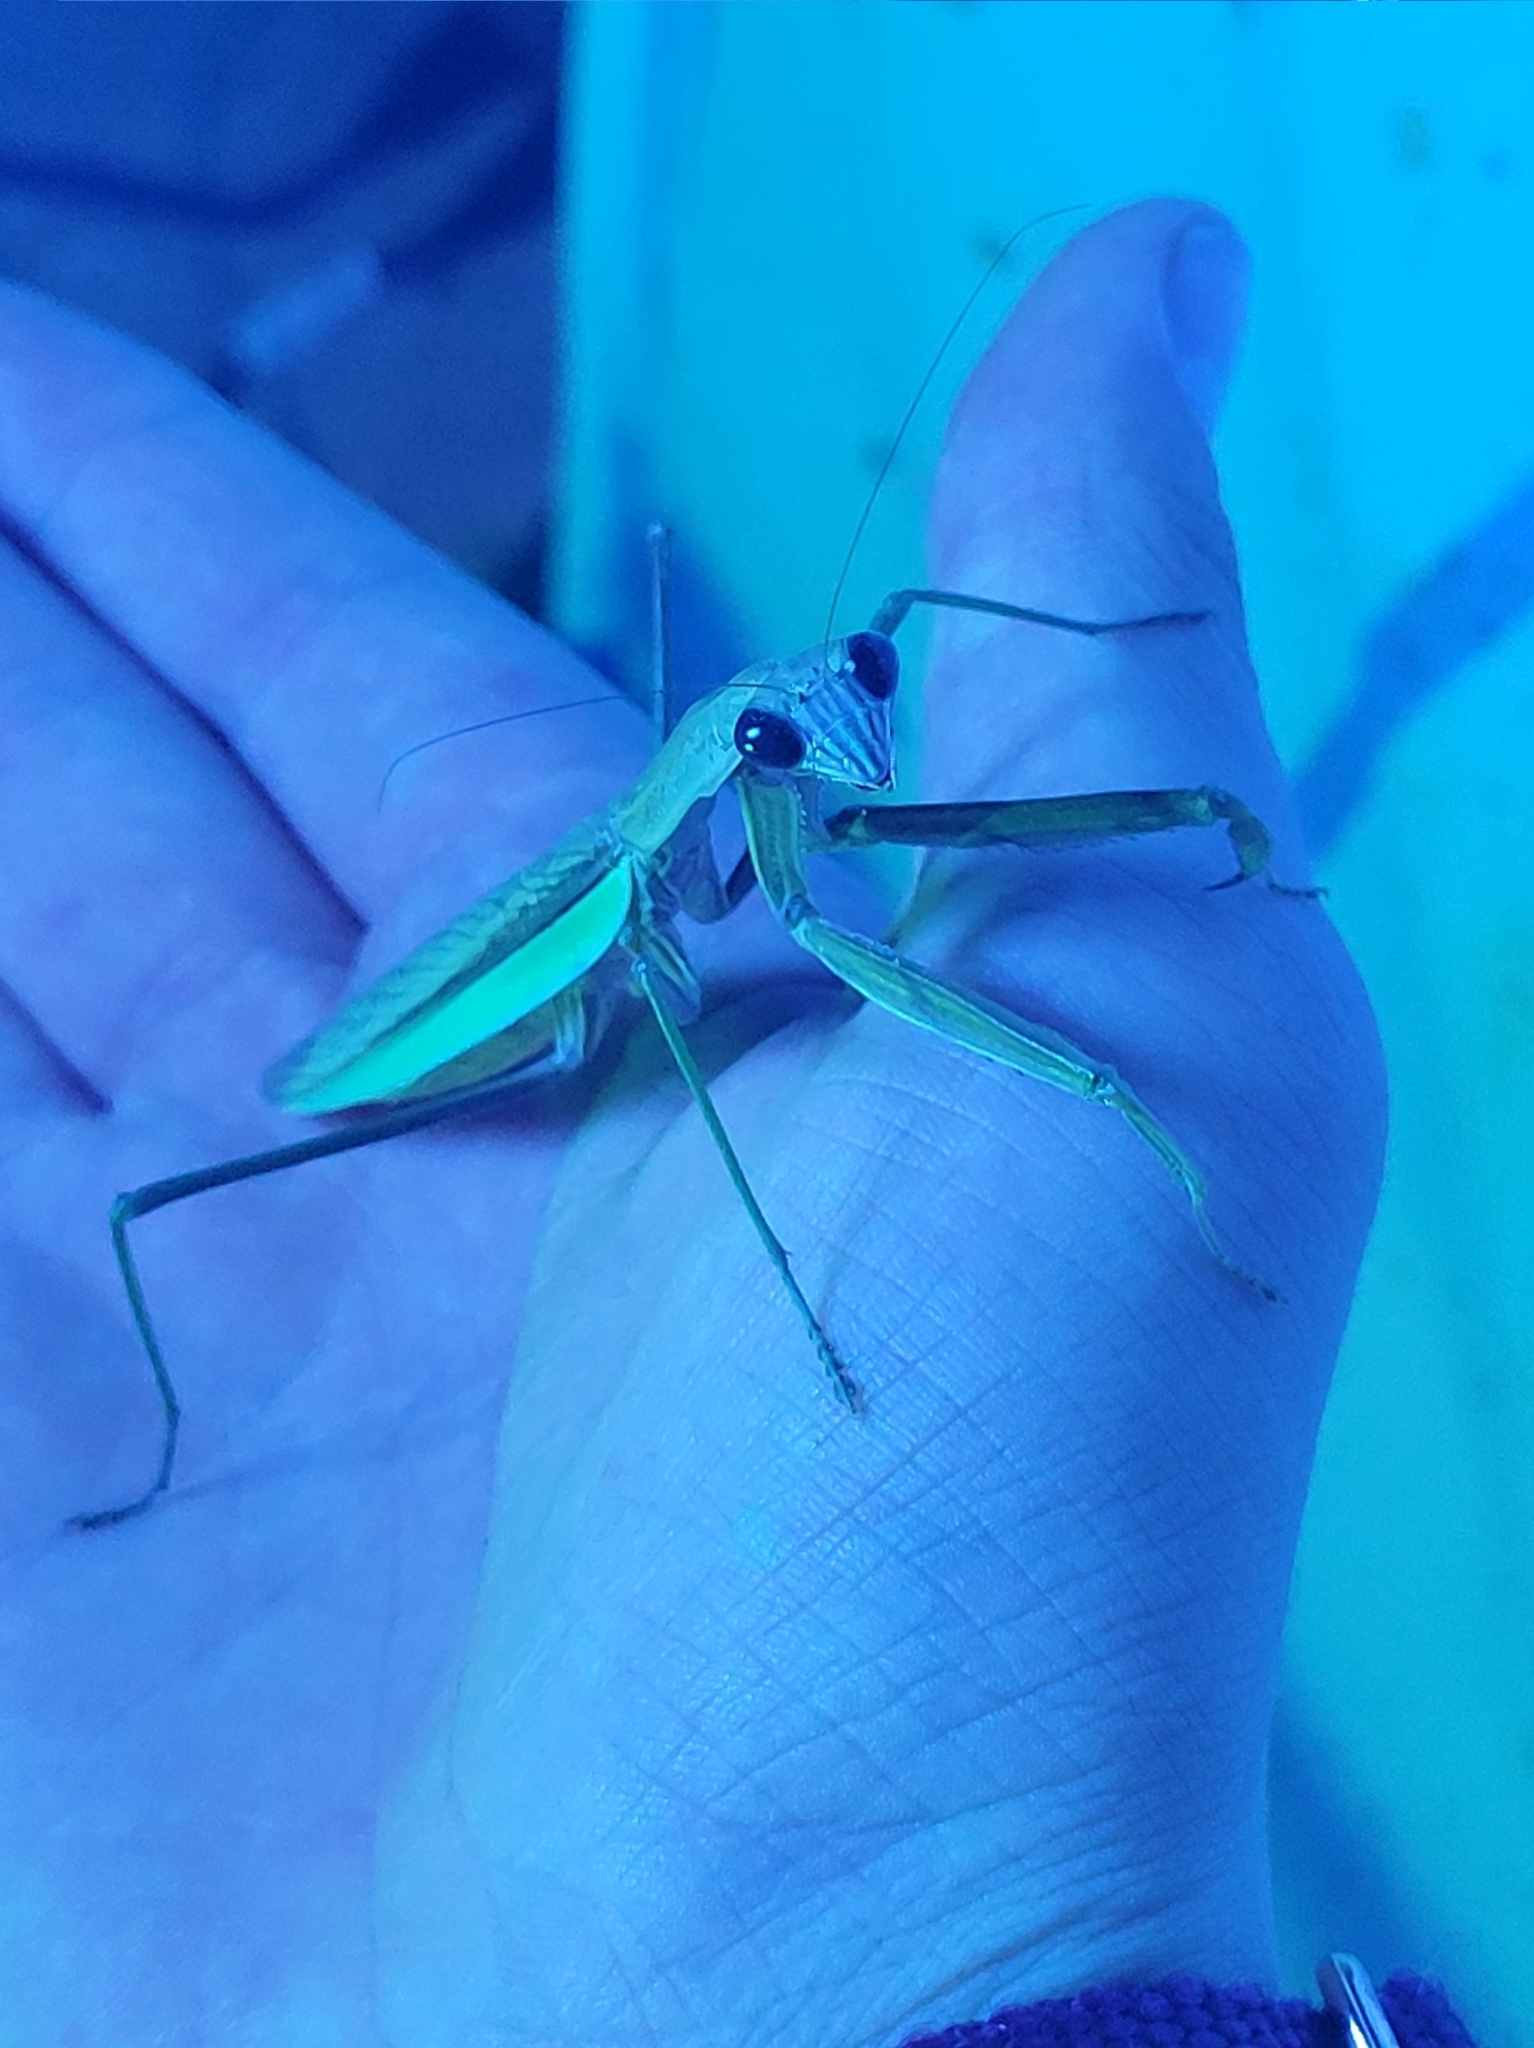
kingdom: Animalia
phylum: Arthropoda
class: Insecta
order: Mantodea
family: Mantidae
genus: Tenodera
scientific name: Tenodera sinensis
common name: Chinese mantis
